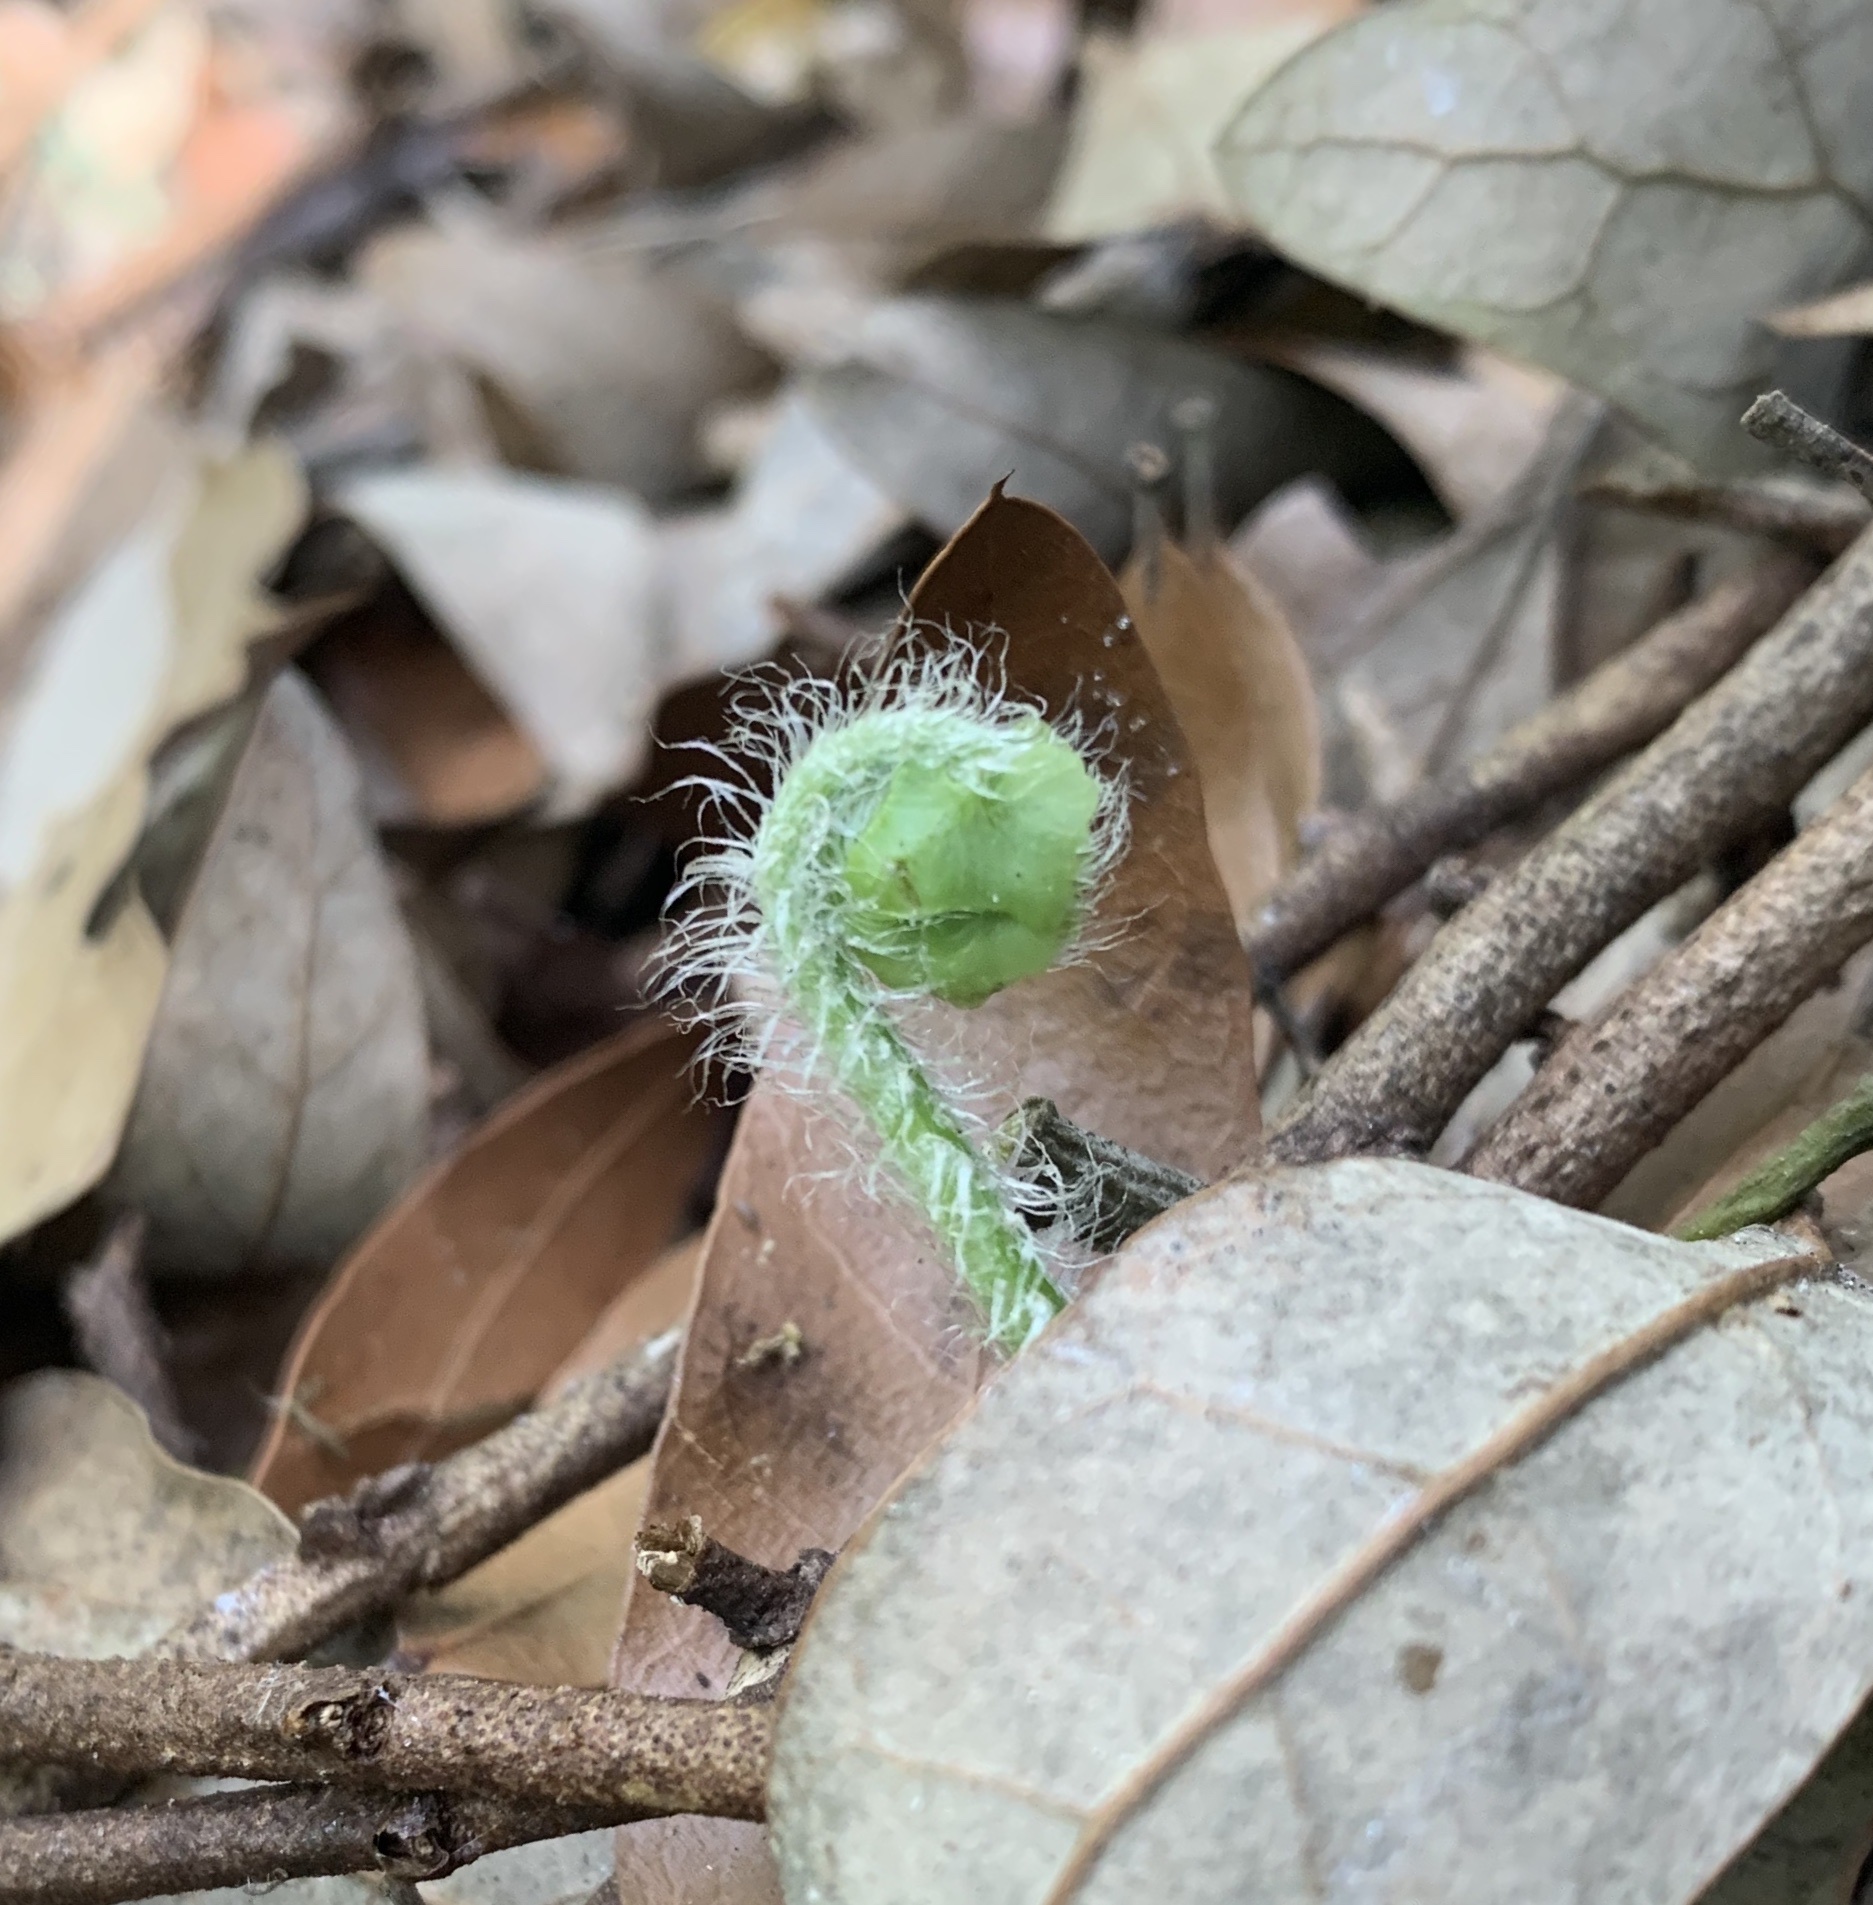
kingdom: Plantae
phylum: Tracheophyta
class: Polypodiopsida
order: Polypodiales
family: Nephrolepidaceae
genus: Nephrolepis
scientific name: Nephrolepis cordifolia
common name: Narrow swordfern
